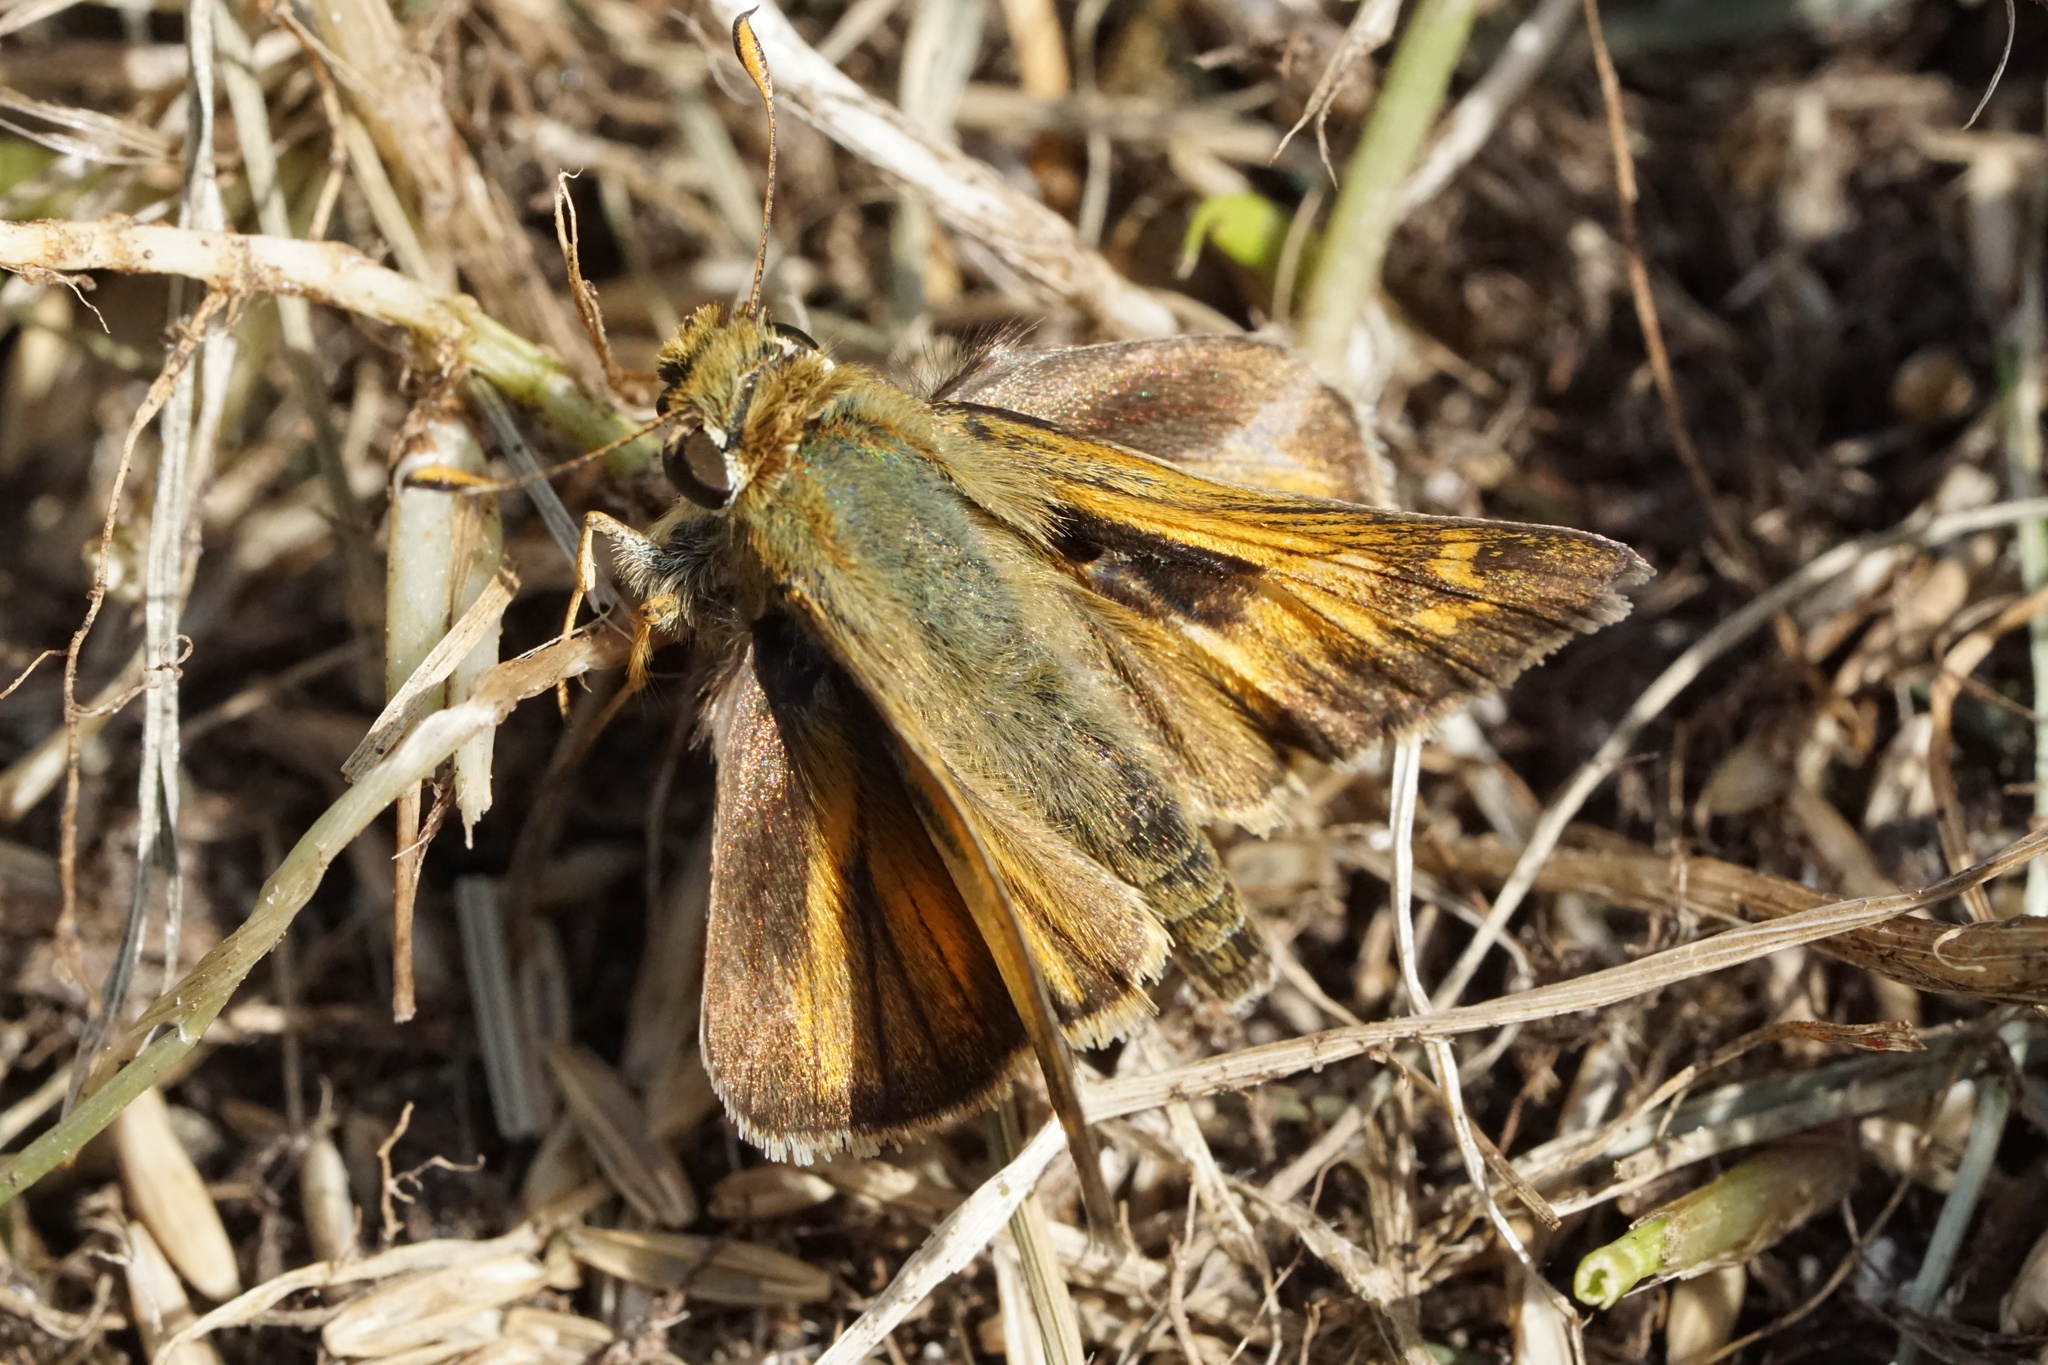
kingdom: Animalia
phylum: Arthropoda
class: Insecta
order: Lepidoptera
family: Hesperiidae
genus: Atalopedes
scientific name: Atalopedes
